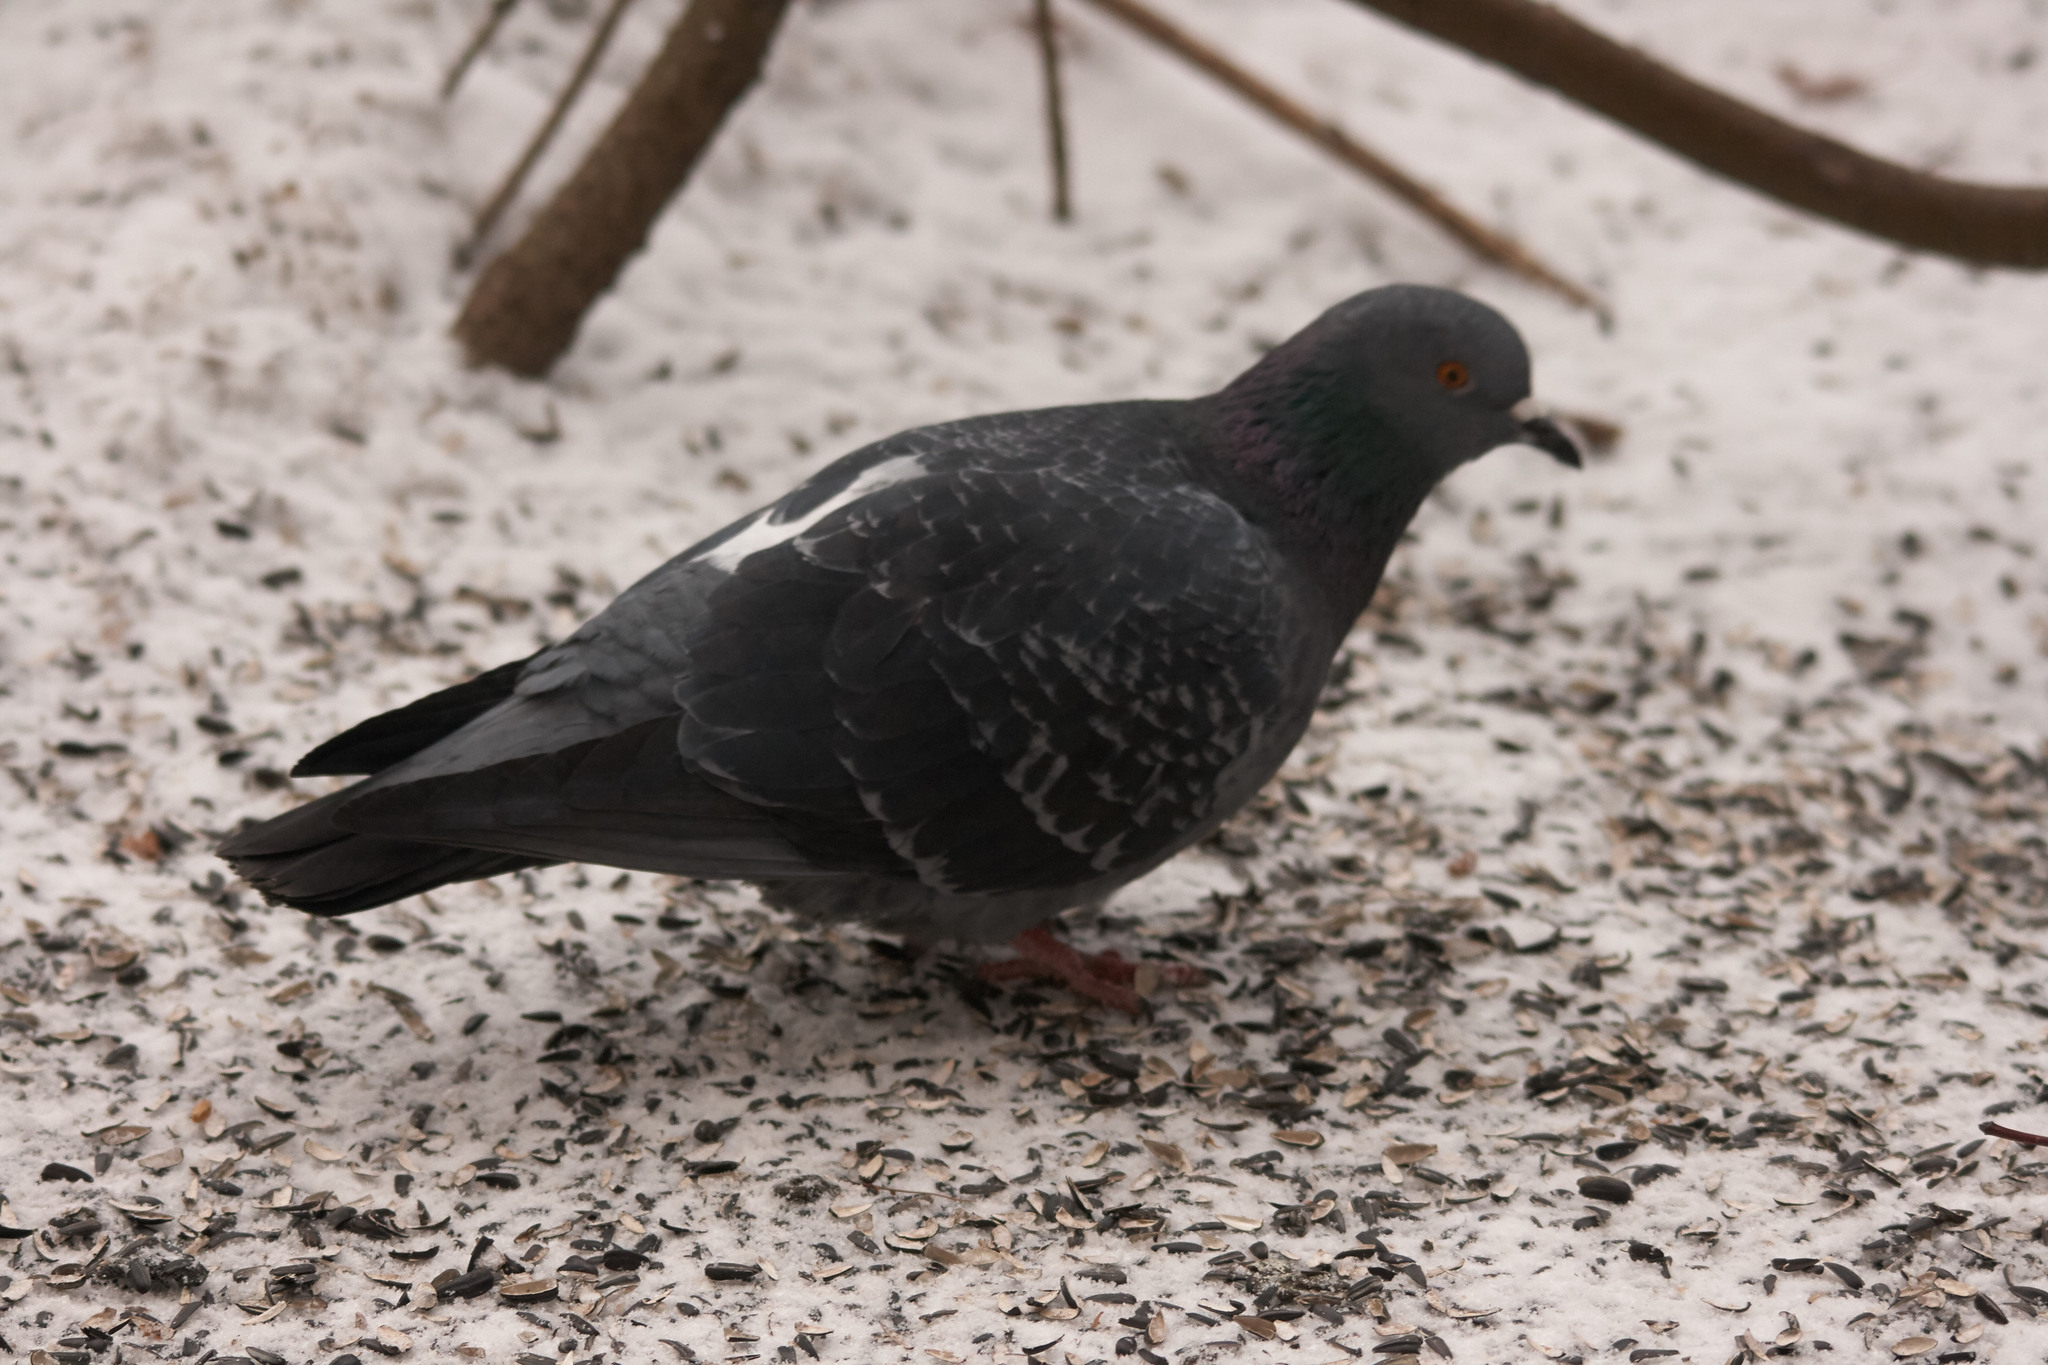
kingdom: Animalia
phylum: Chordata
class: Aves
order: Columbiformes
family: Columbidae
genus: Columba
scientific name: Columba livia
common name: Rock pigeon
